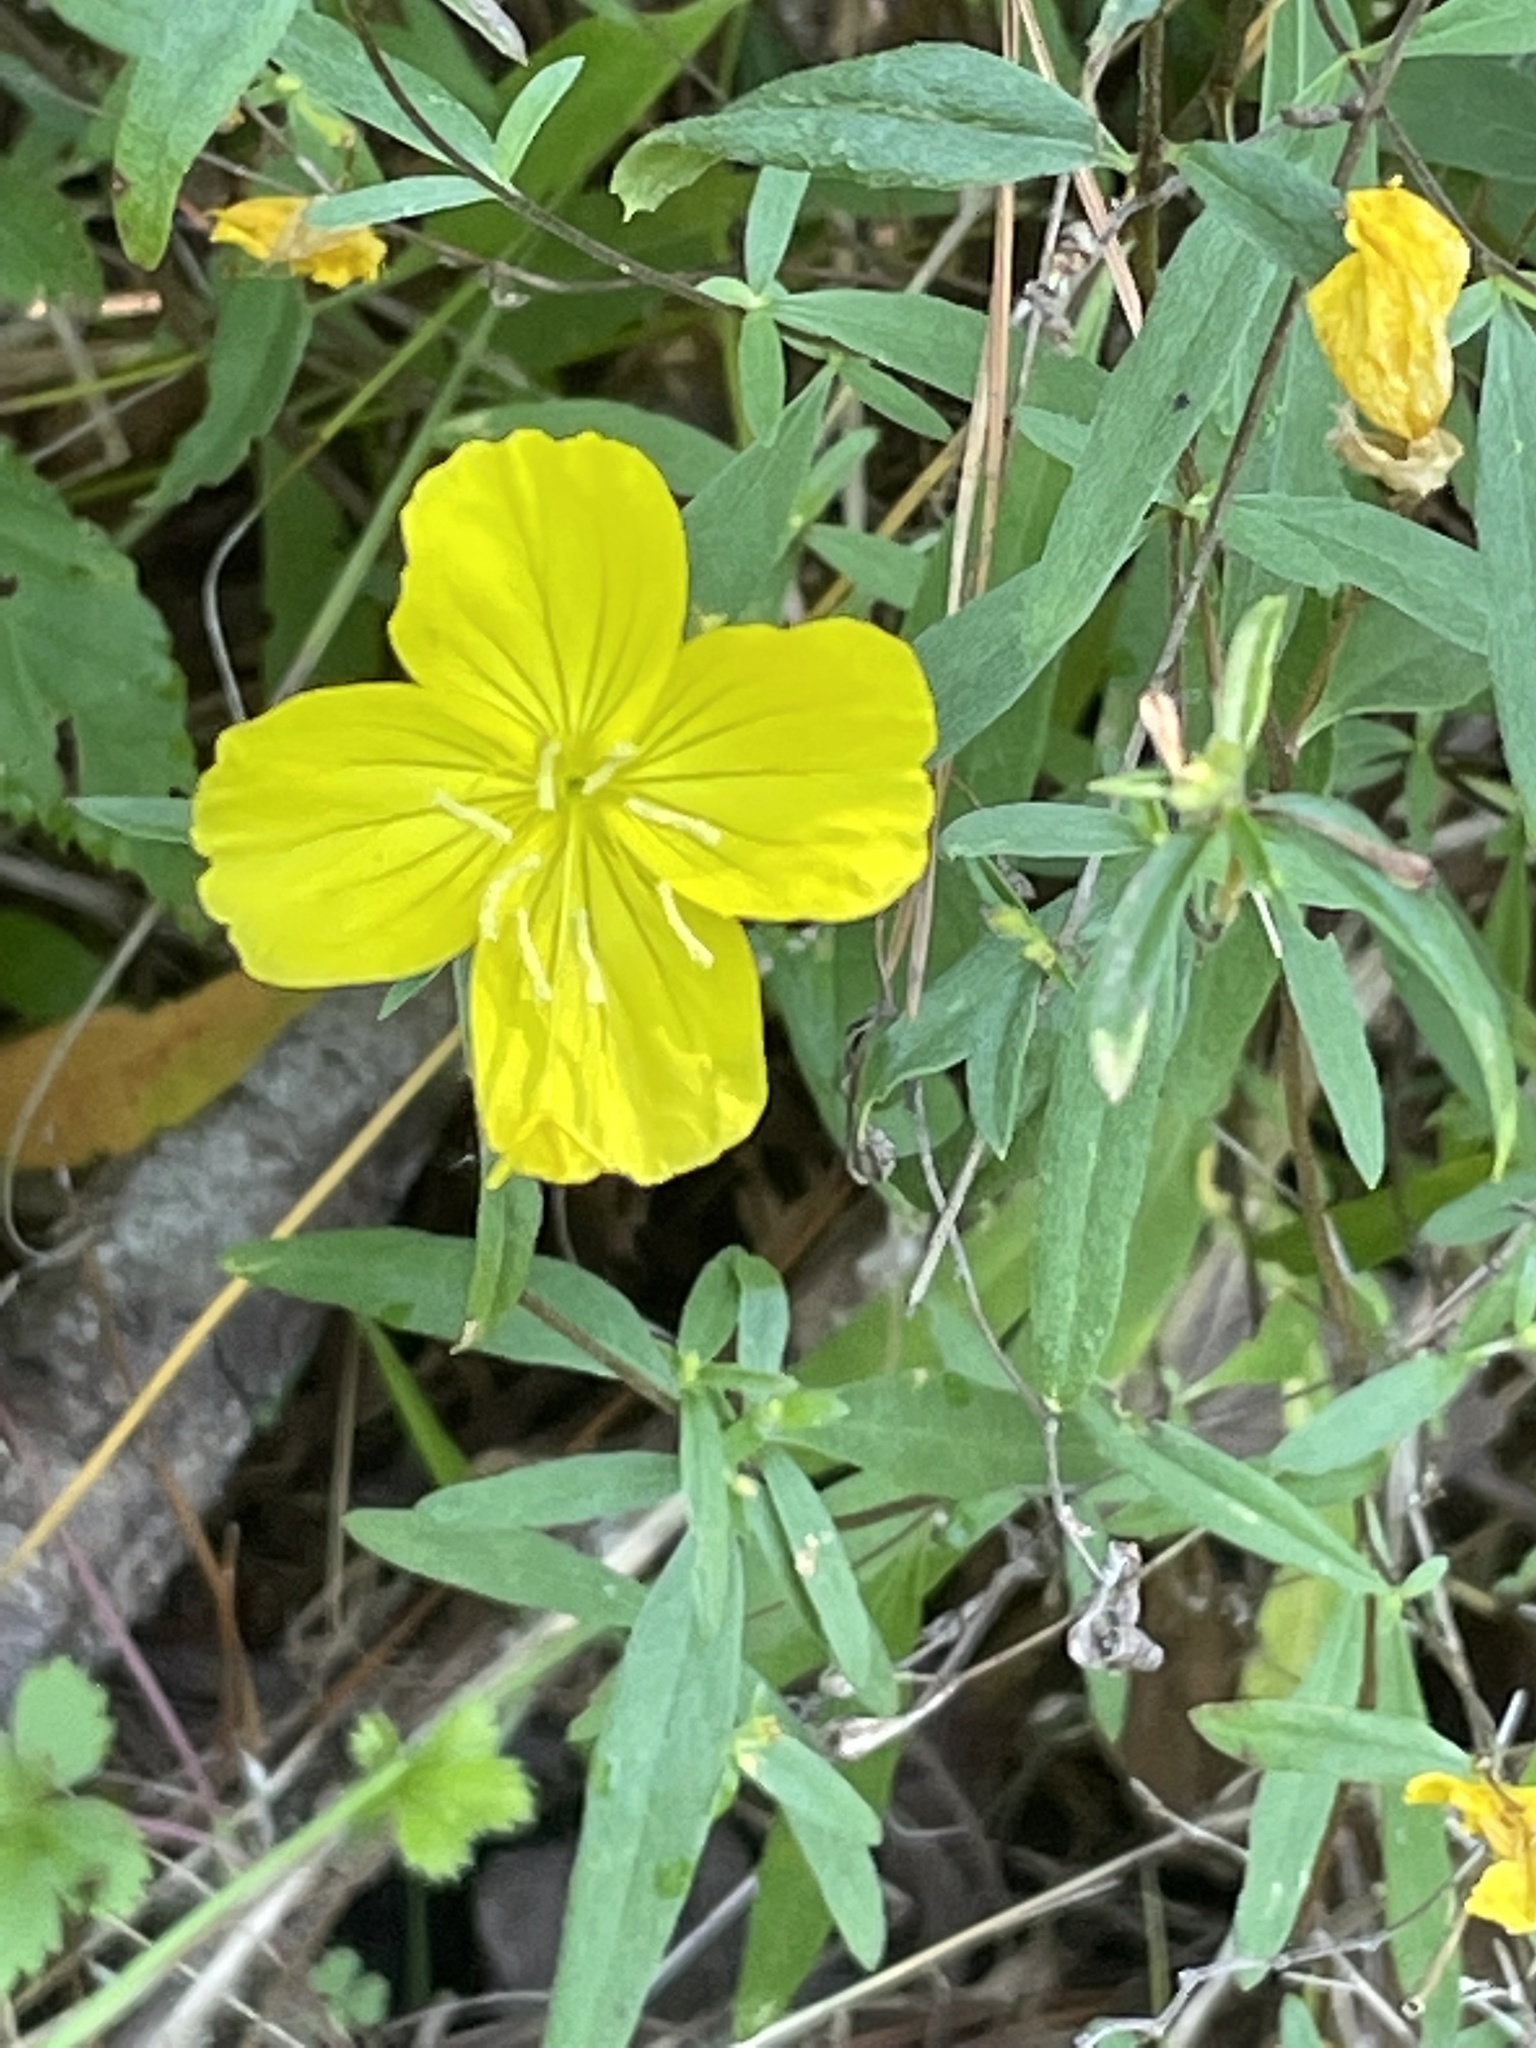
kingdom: Plantae
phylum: Tracheophyta
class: Magnoliopsida
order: Myrtales
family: Onagraceae
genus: Oenothera
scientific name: Oenothera fruticosa
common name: Southern sundrops
